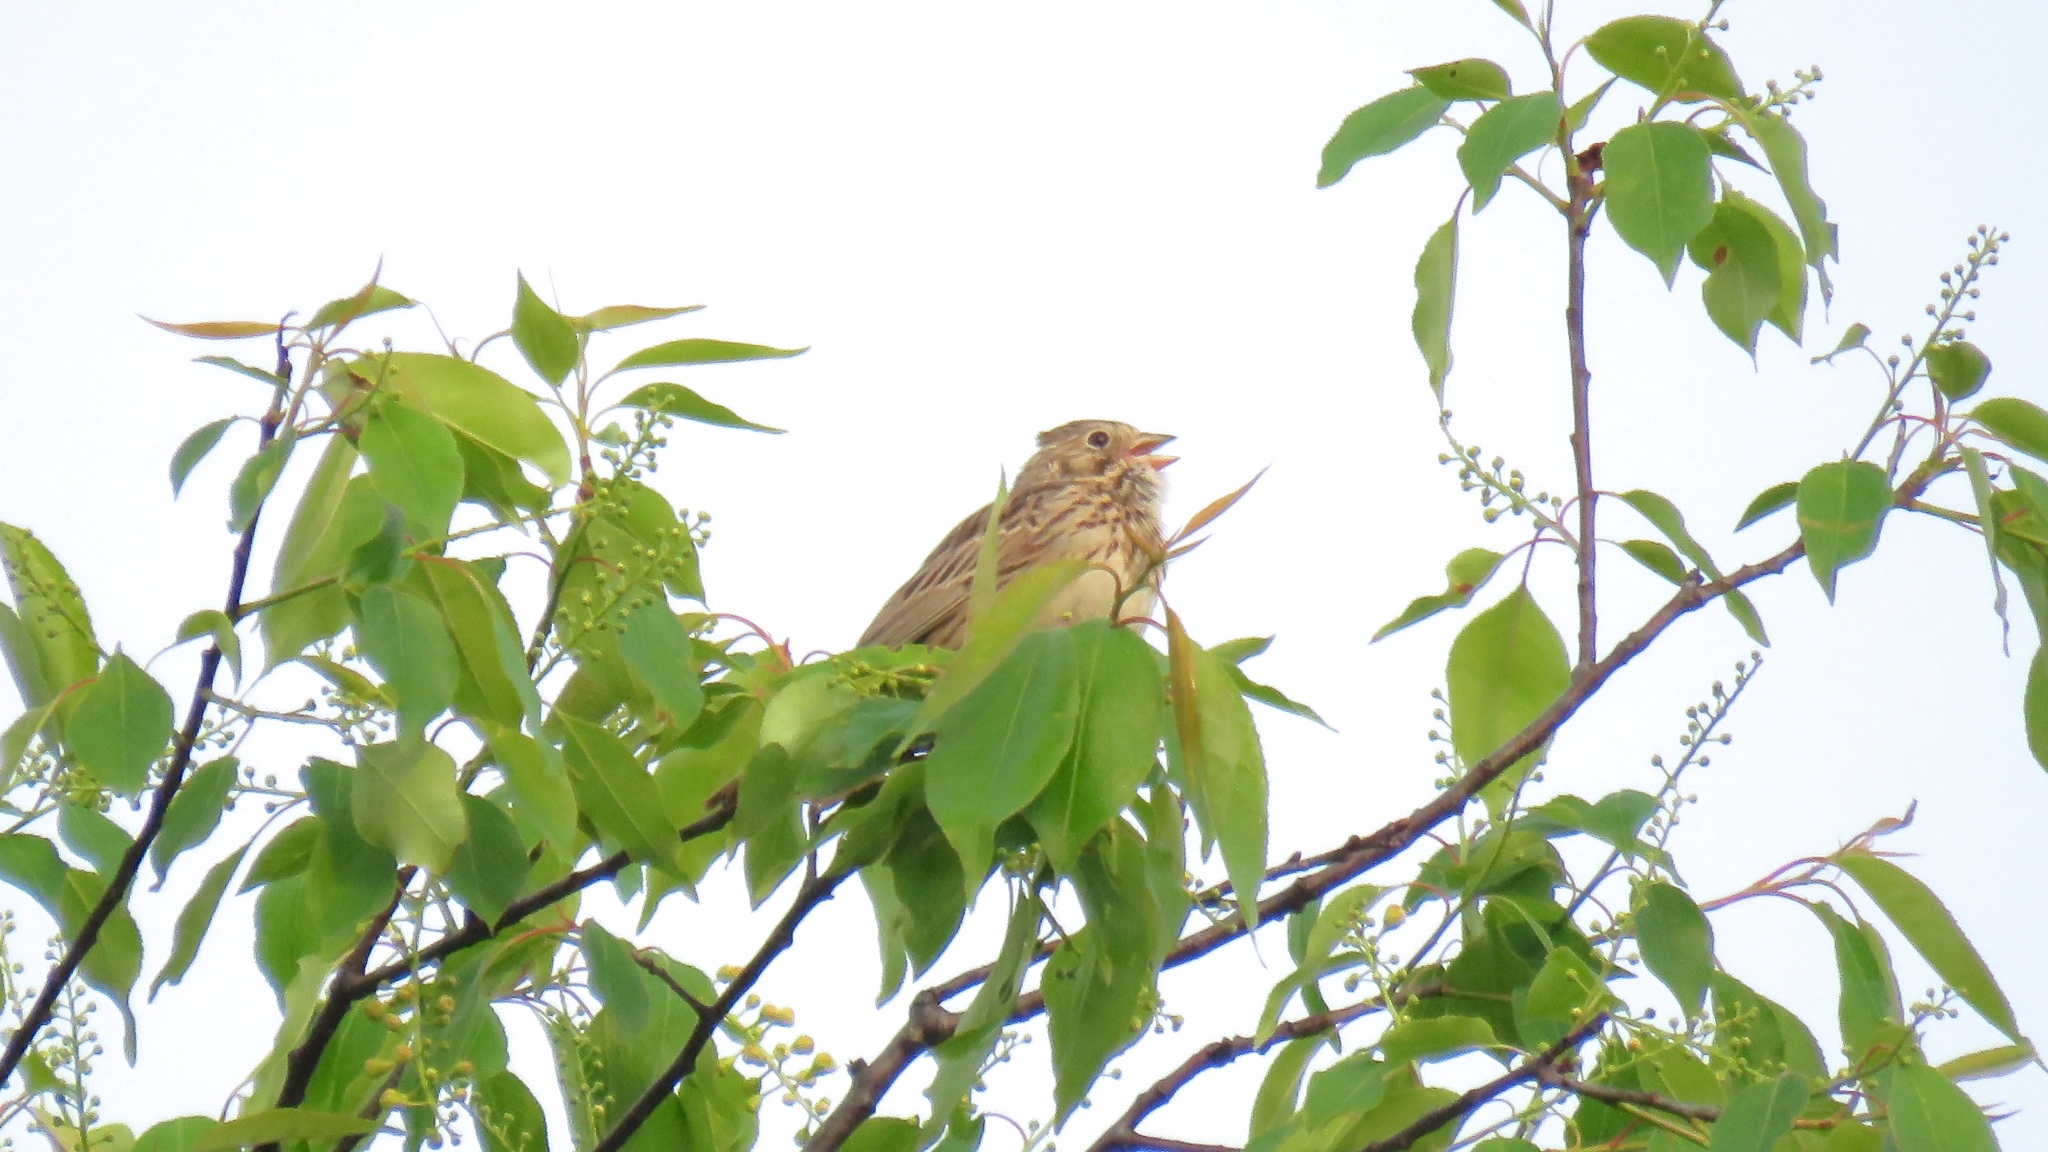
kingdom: Animalia
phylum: Chordata
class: Aves
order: Passeriformes
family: Passerellidae
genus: Pooecetes
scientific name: Pooecetes gramineus
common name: Vesper sparrow
